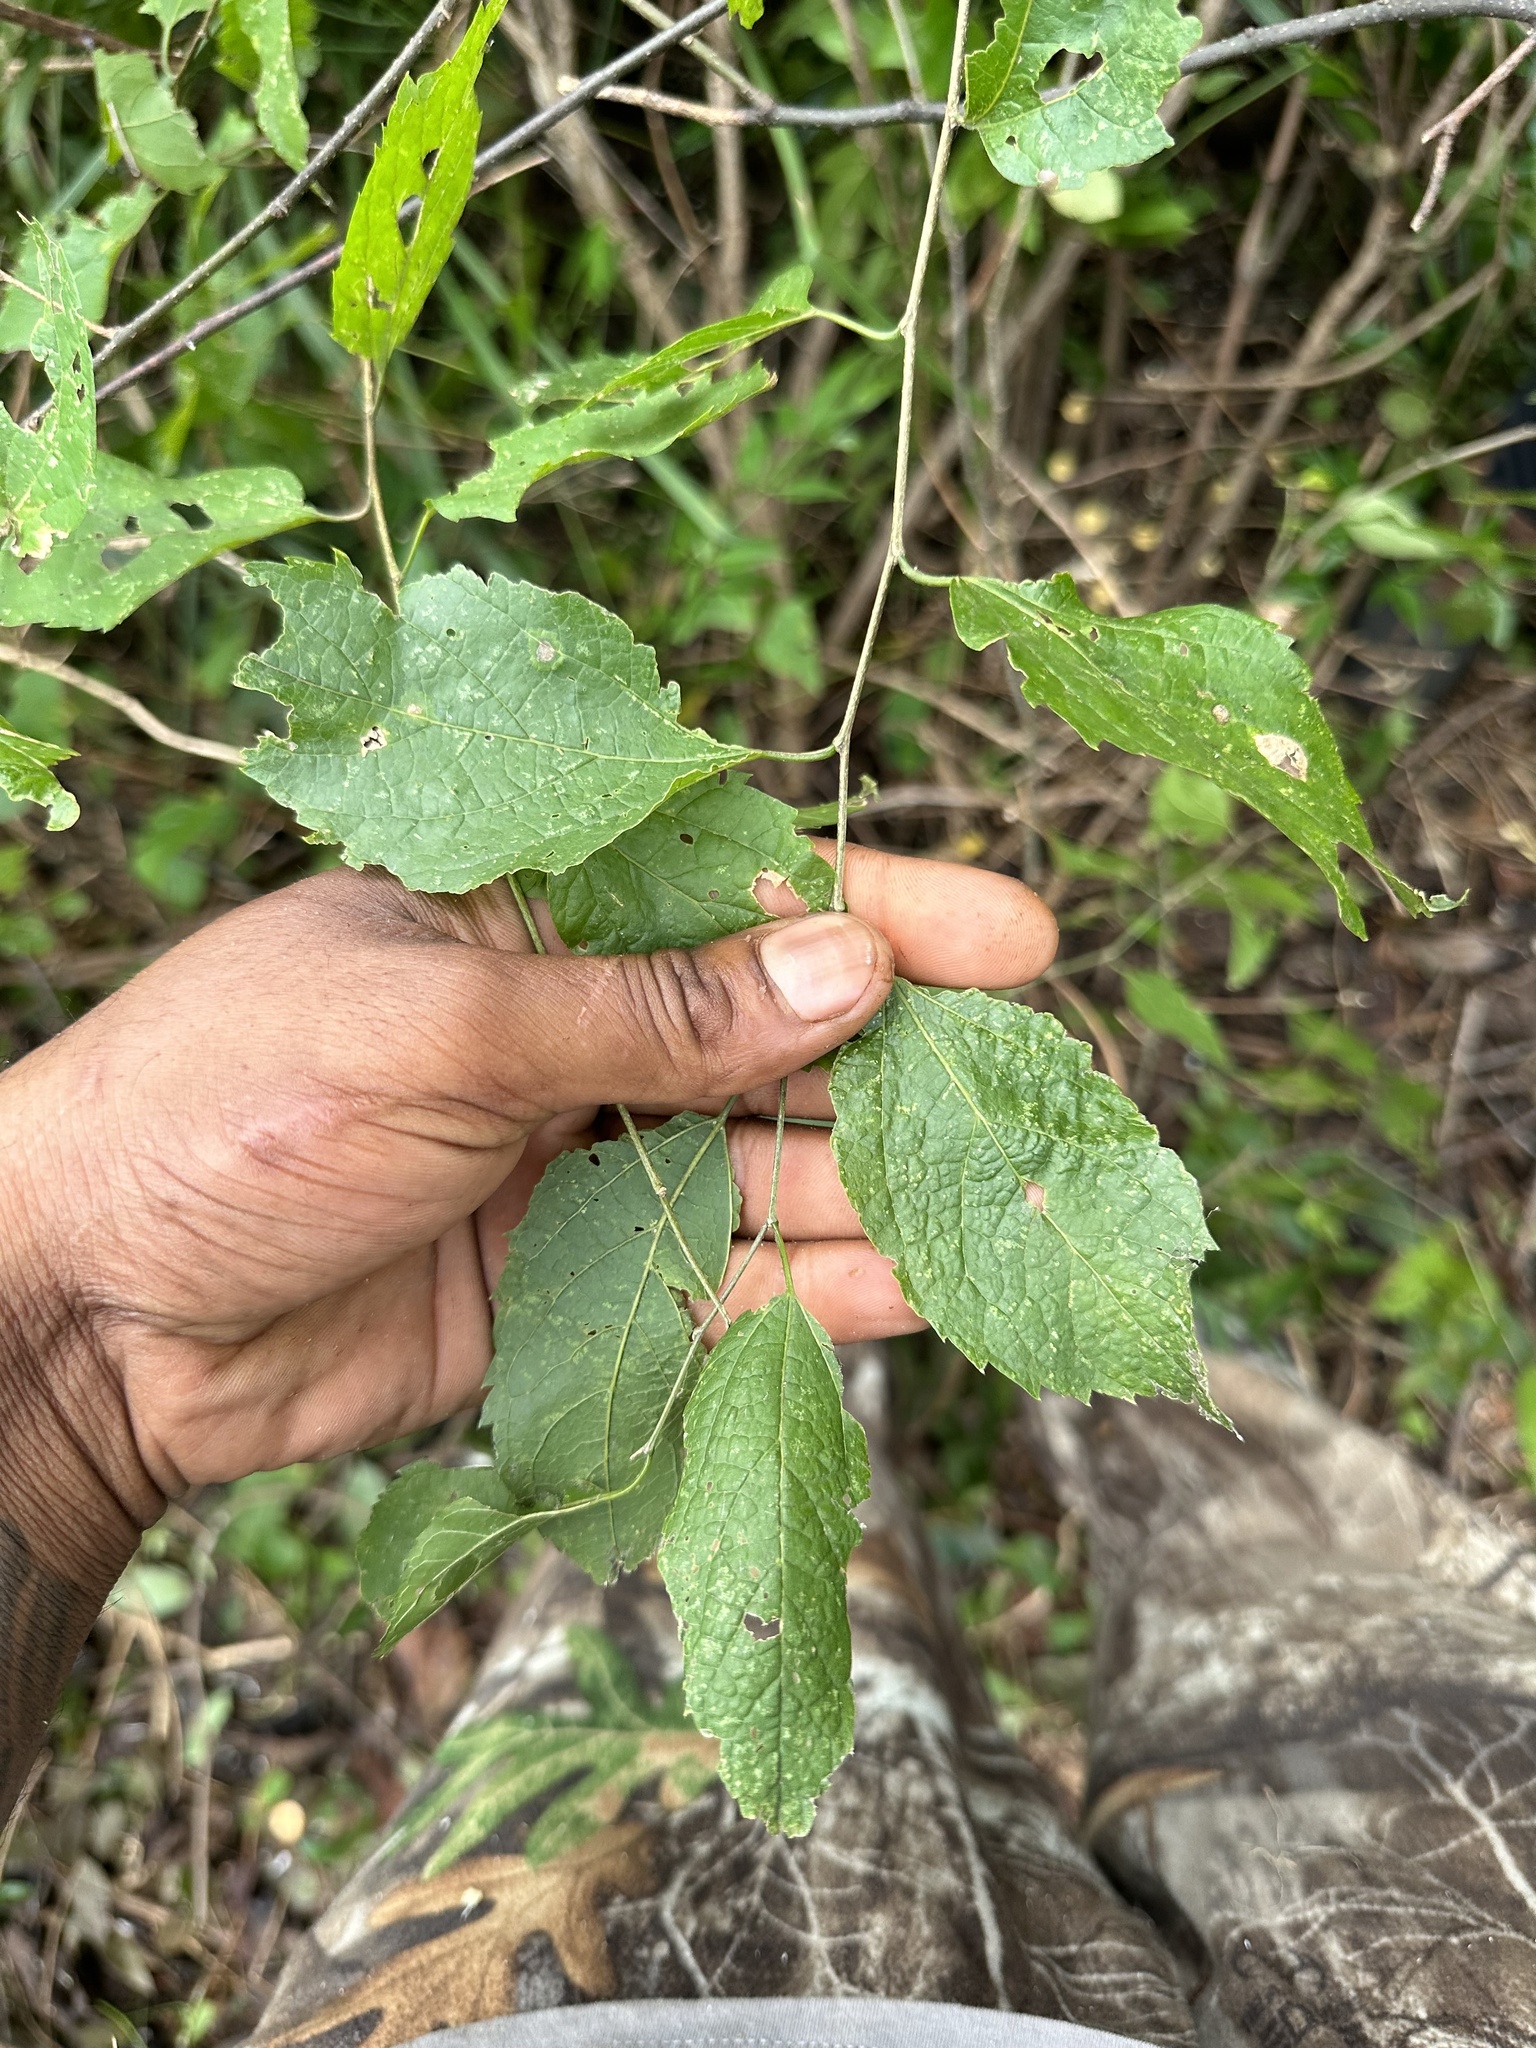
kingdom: Plantae
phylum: Tracheophyta
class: Magnoliopsida
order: Rosales
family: Cannabaceae
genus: Celtis
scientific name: Celtis tenuifolia
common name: Georgia hackberry
